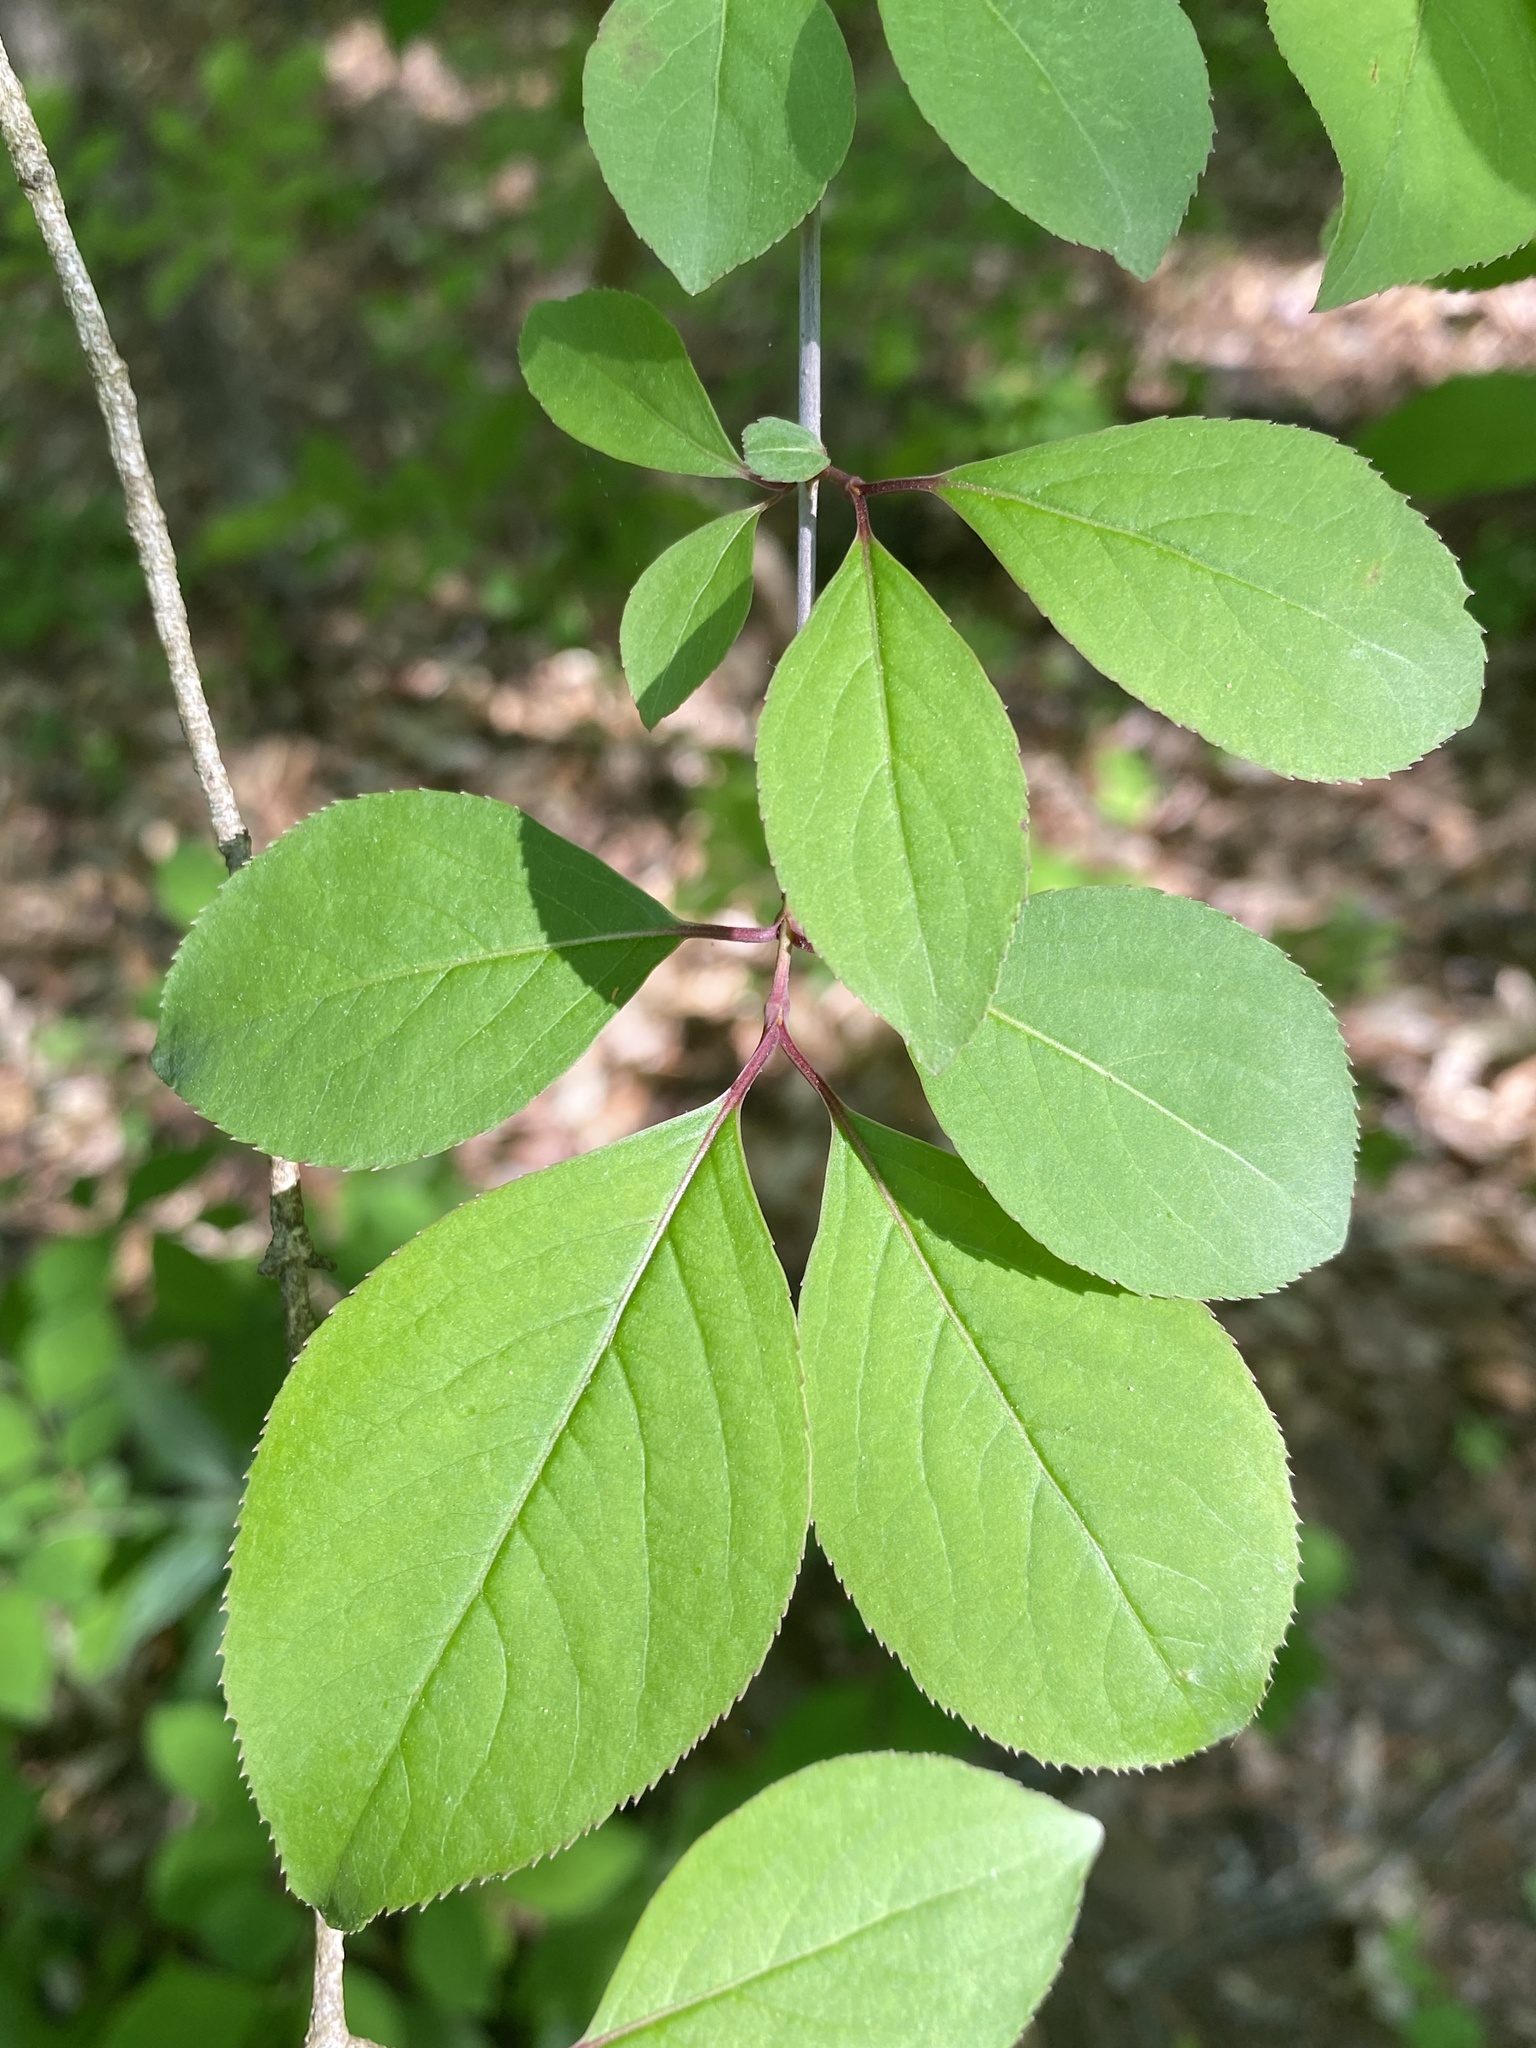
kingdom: Plantae
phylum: Tracheophyta
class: Magnoliopsida
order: Dipsacales
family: Viburnaceae
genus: Viburnum
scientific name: Viburnum prunifolium
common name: Black haw
